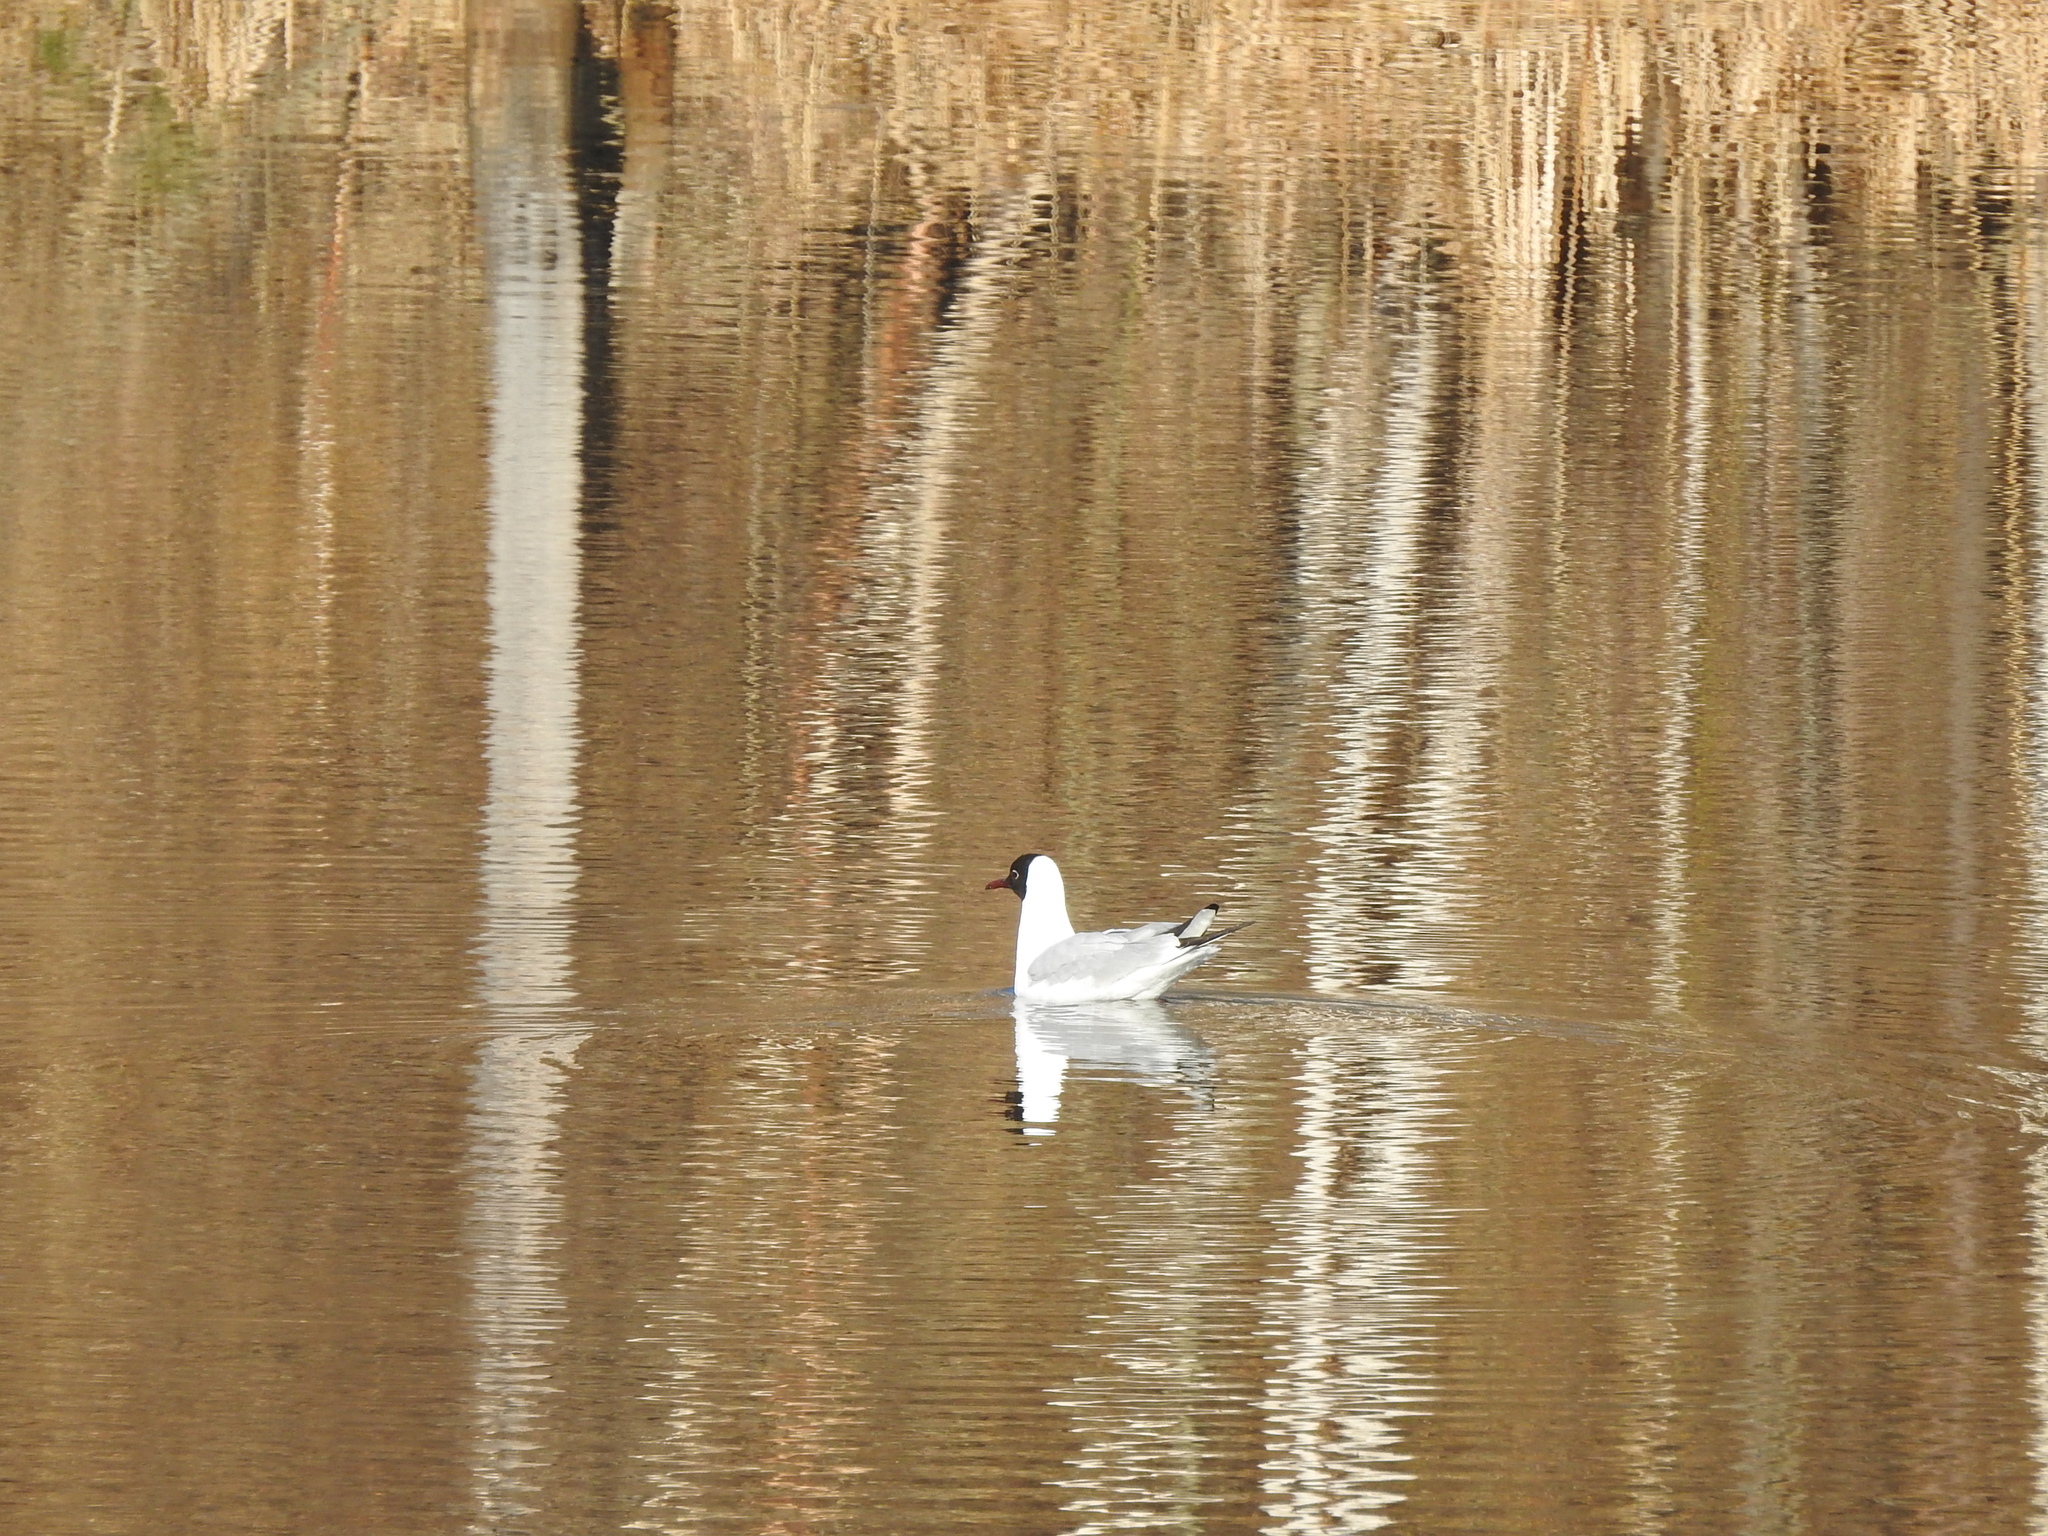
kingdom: Animalia
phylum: Chordata
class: Aves
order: Charadriiformes
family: Laridae
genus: Chroicocephalus
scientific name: Chroicocephalus ridibundus
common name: Black-headed gull
